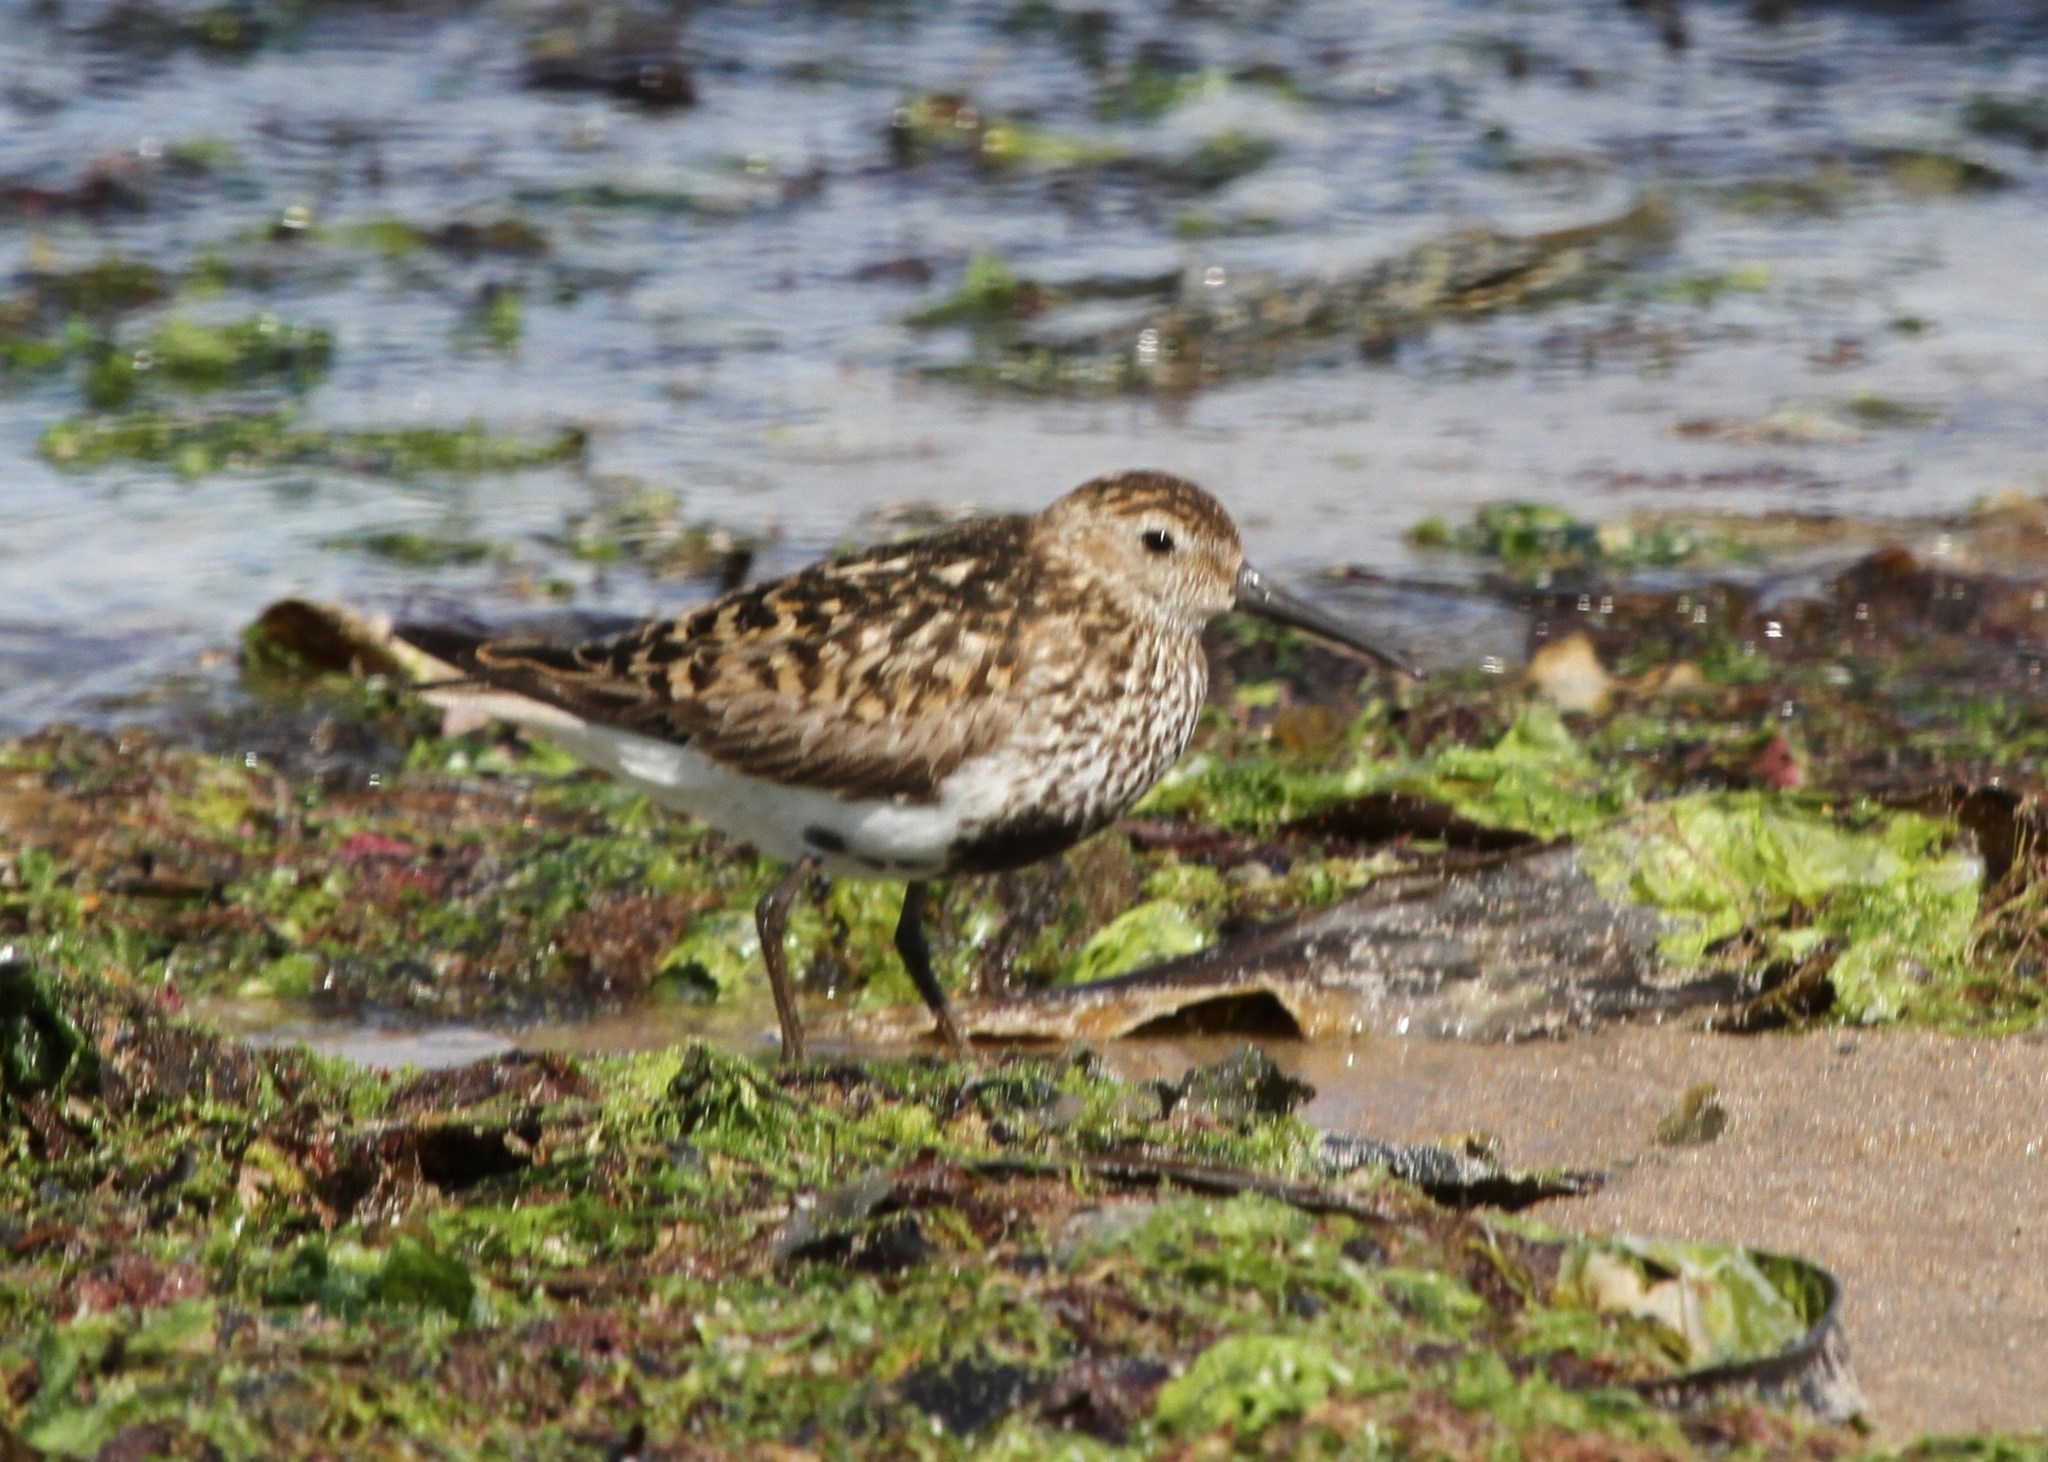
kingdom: Animalia
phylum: Chordata
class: Aves
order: Charadriiformes
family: Scolopacidae
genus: Calidris
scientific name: Calidris alpina
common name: Dunlin
